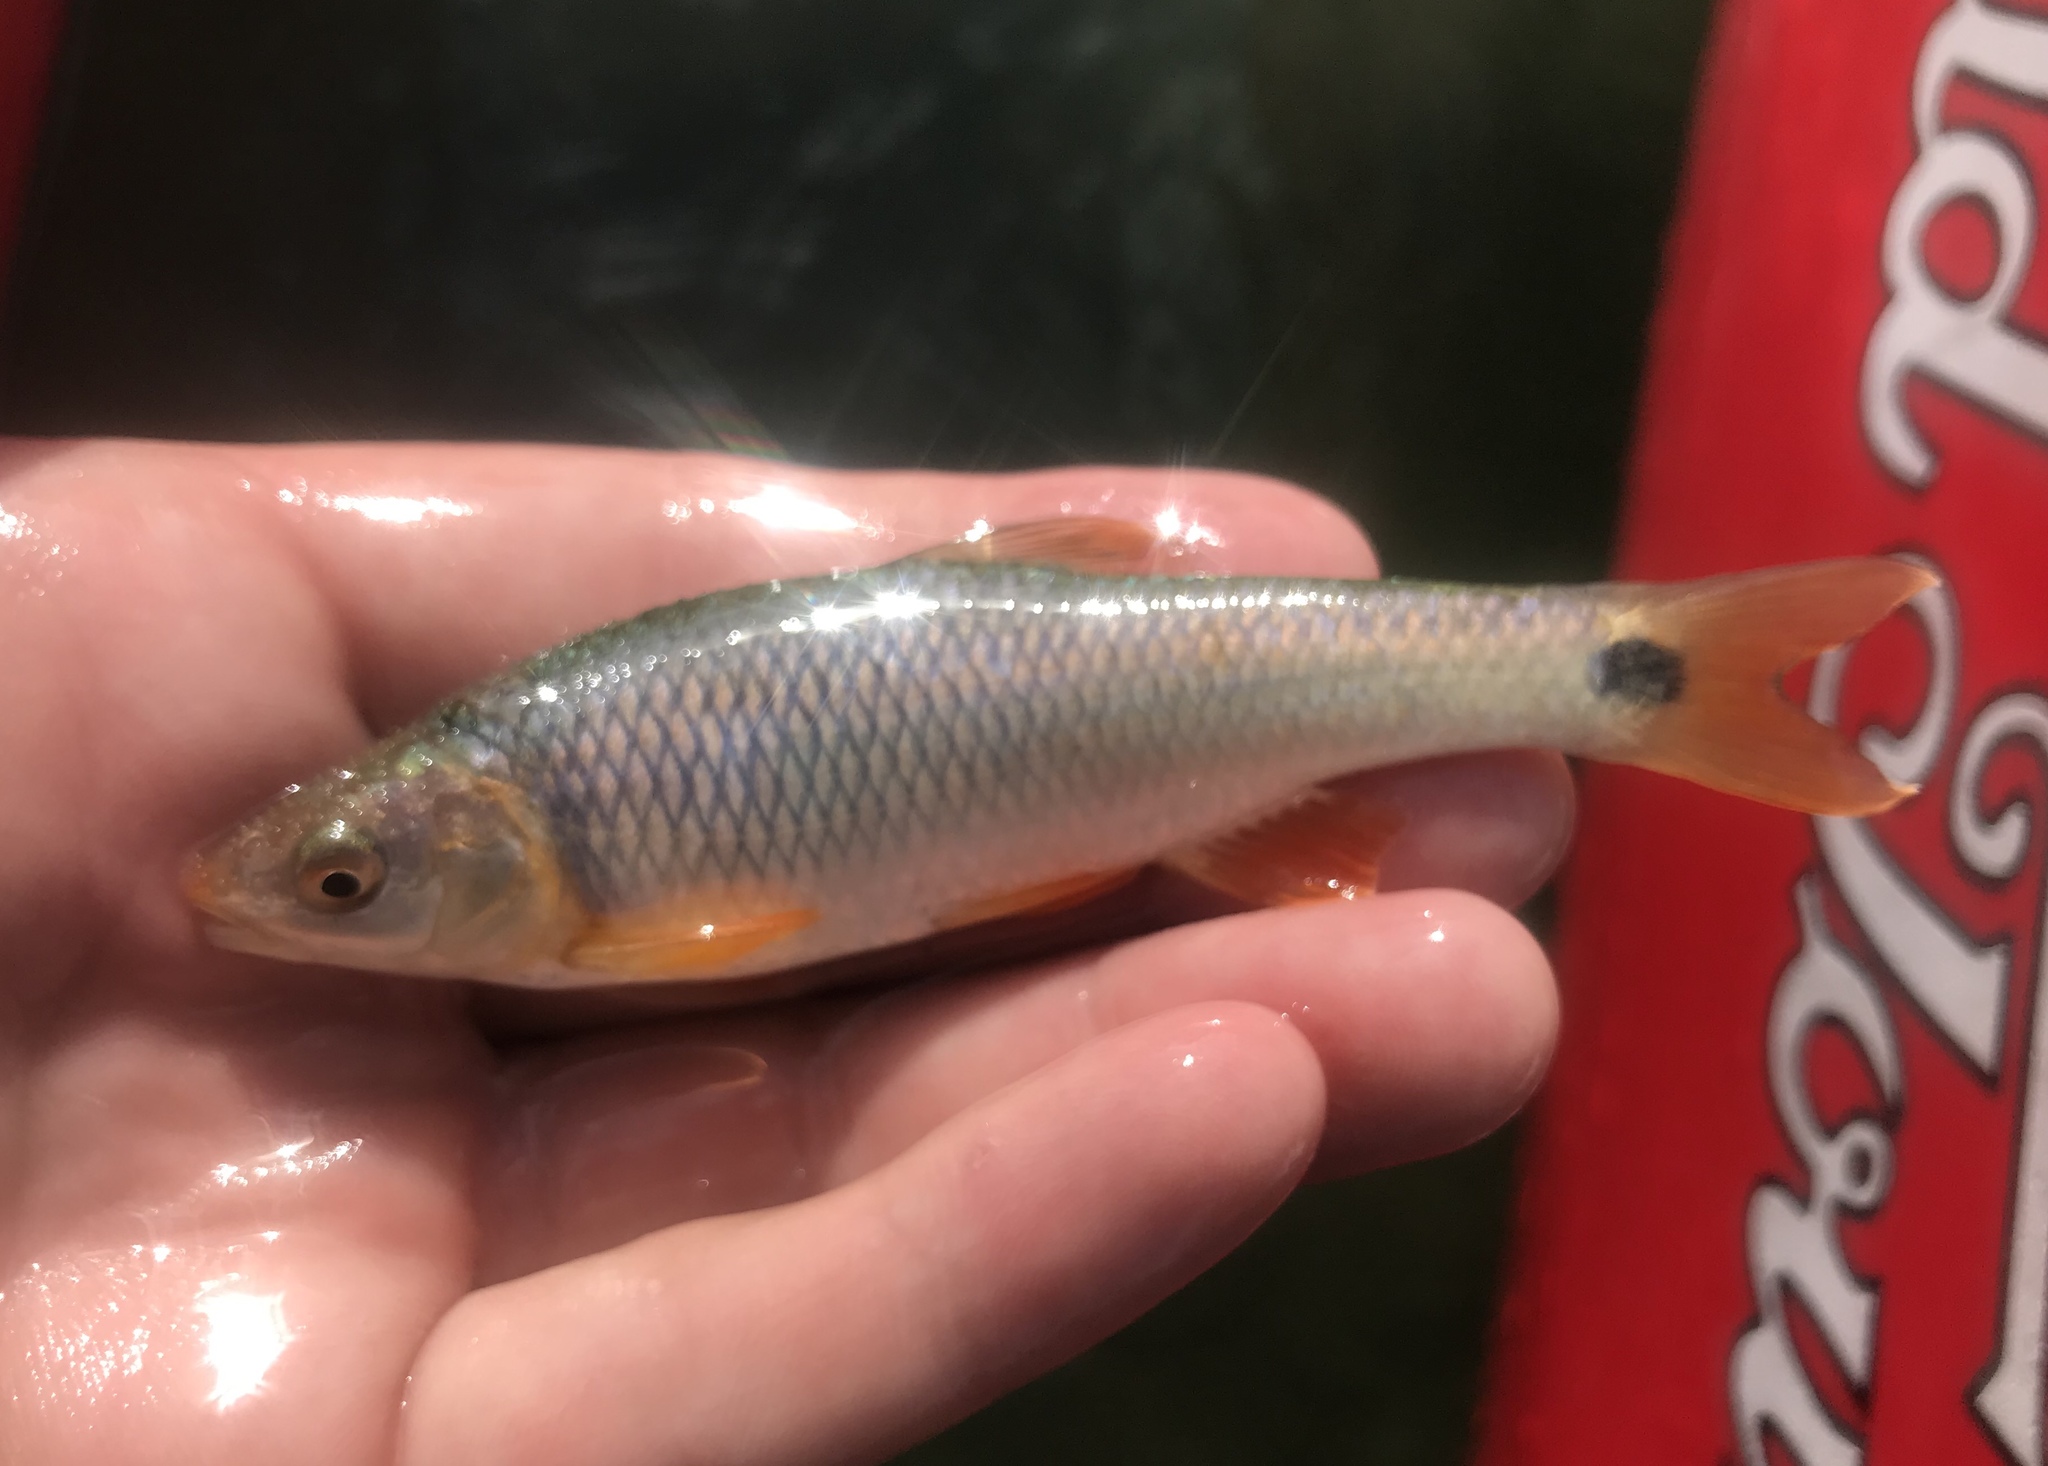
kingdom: Animalia
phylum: Chordata
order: Cypriniformes
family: Cyprinidae
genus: Cyprinella
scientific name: Cyprinella venusta
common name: Blacktail shiner
